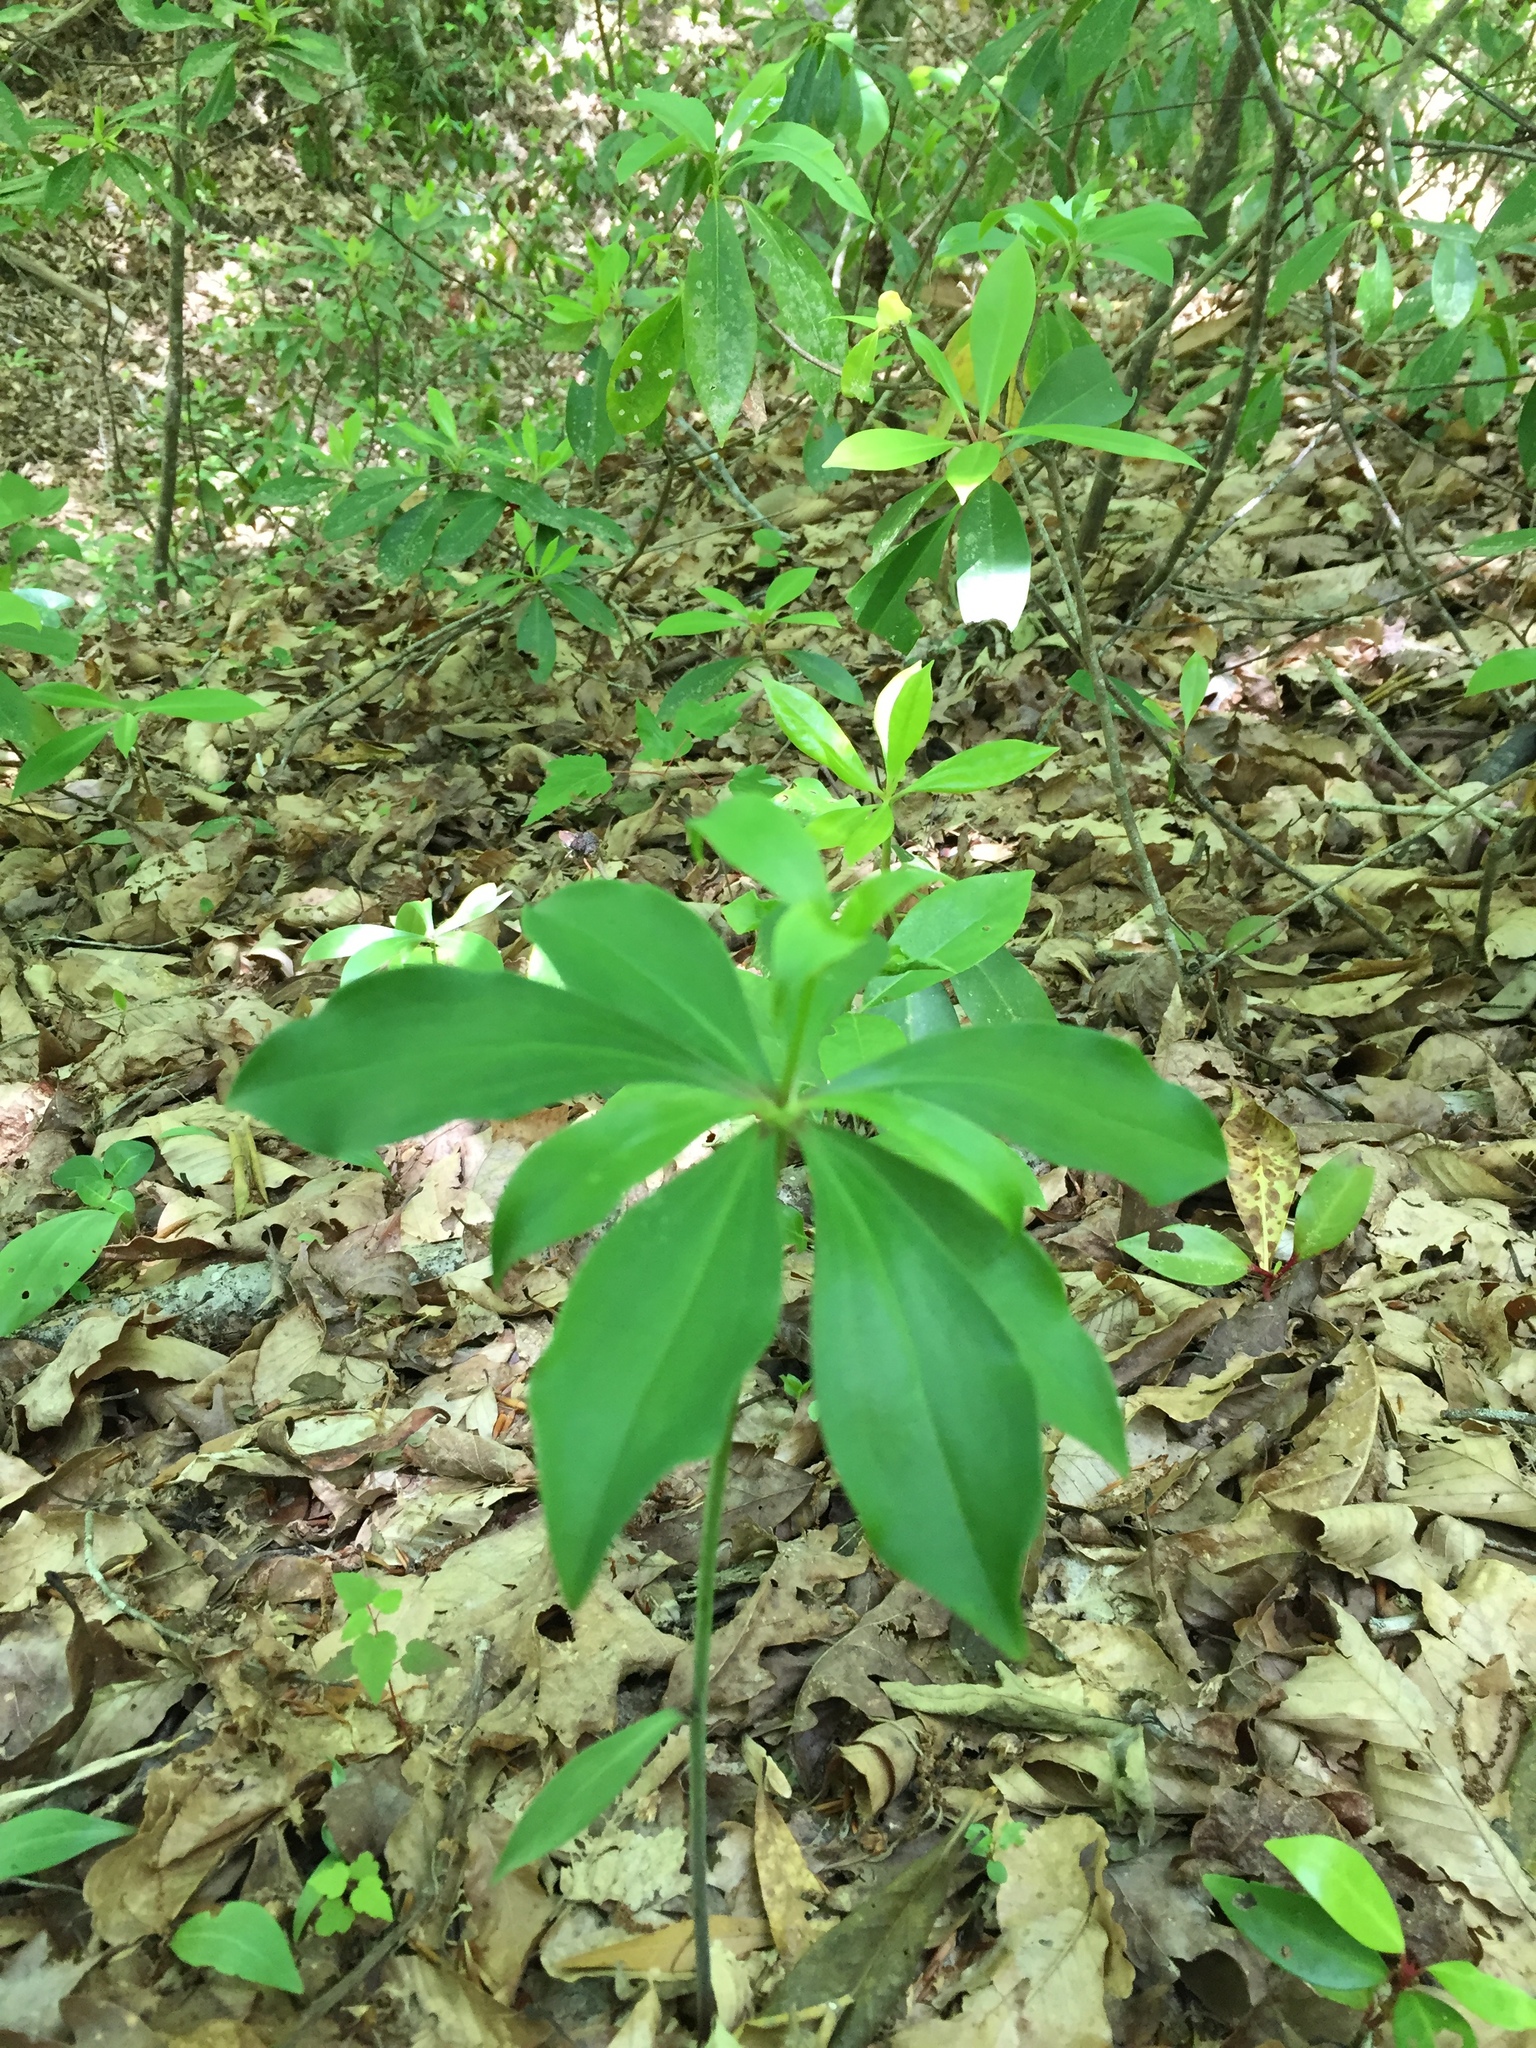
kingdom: Plantae
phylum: Tracheophyta
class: Liliopsida
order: Liliales
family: Liliaceae
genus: Lilium
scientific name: Lilium michauxii
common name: Carolina lily
